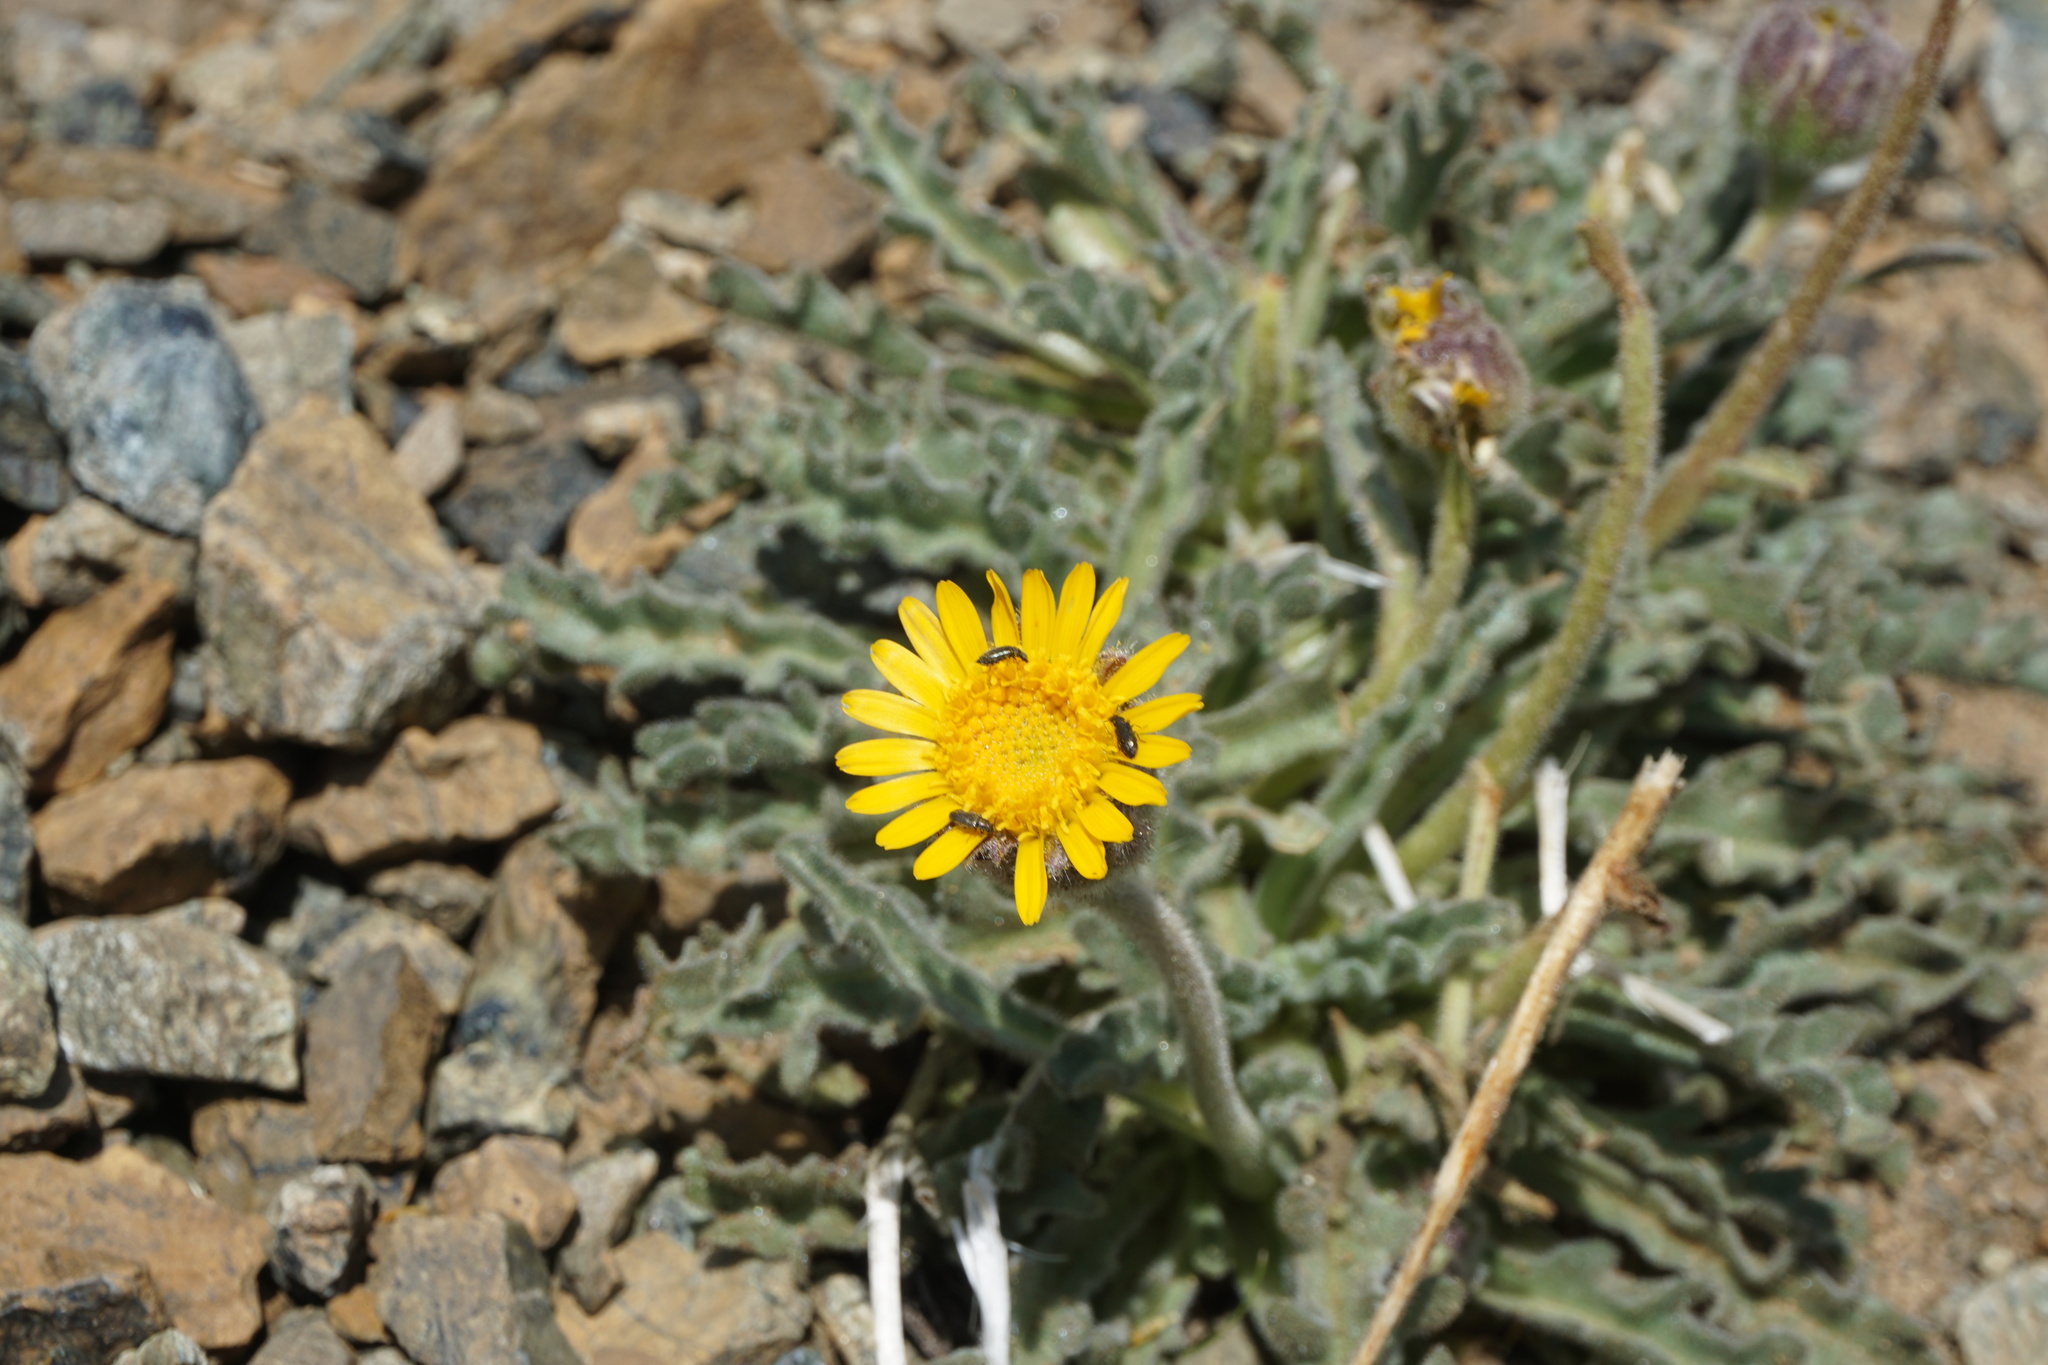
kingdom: Plantae
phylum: Tracheophyta
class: Magnoliopsida
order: Asterales
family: Asteraceae
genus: Hulsea
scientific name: Hulsea nana
